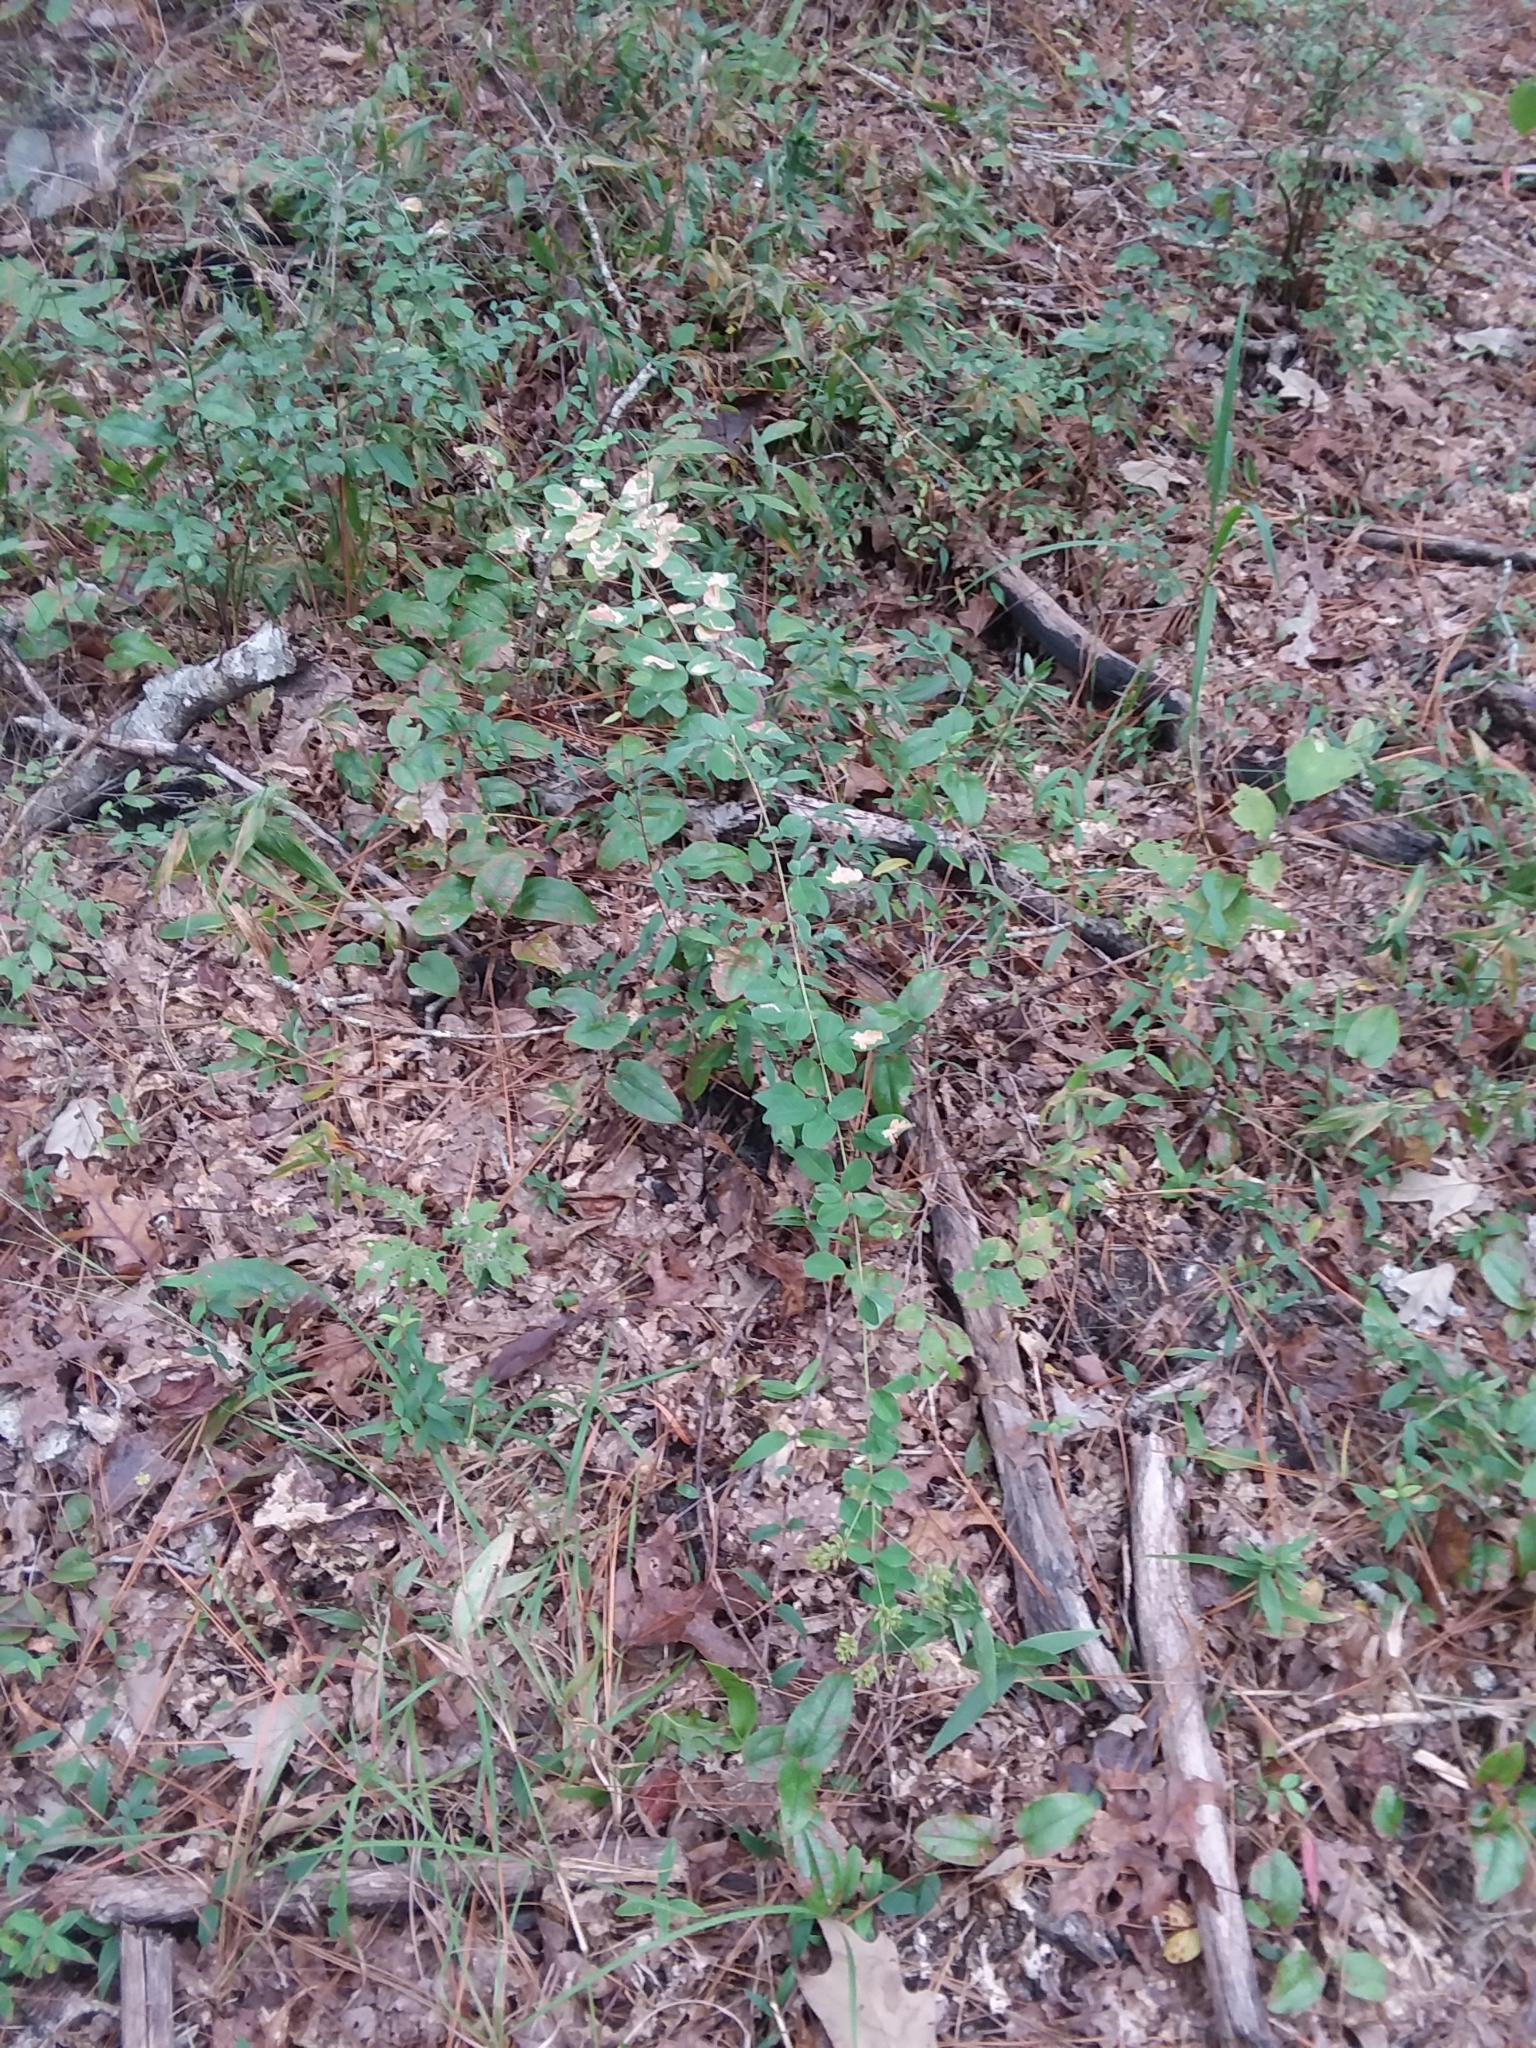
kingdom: Plantae
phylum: Tracheophyta
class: Magnoliopsida
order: Fabales
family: Fabaceae
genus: Lespedeza
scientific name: Lespedeza hirta
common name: Hairy lespedeza
